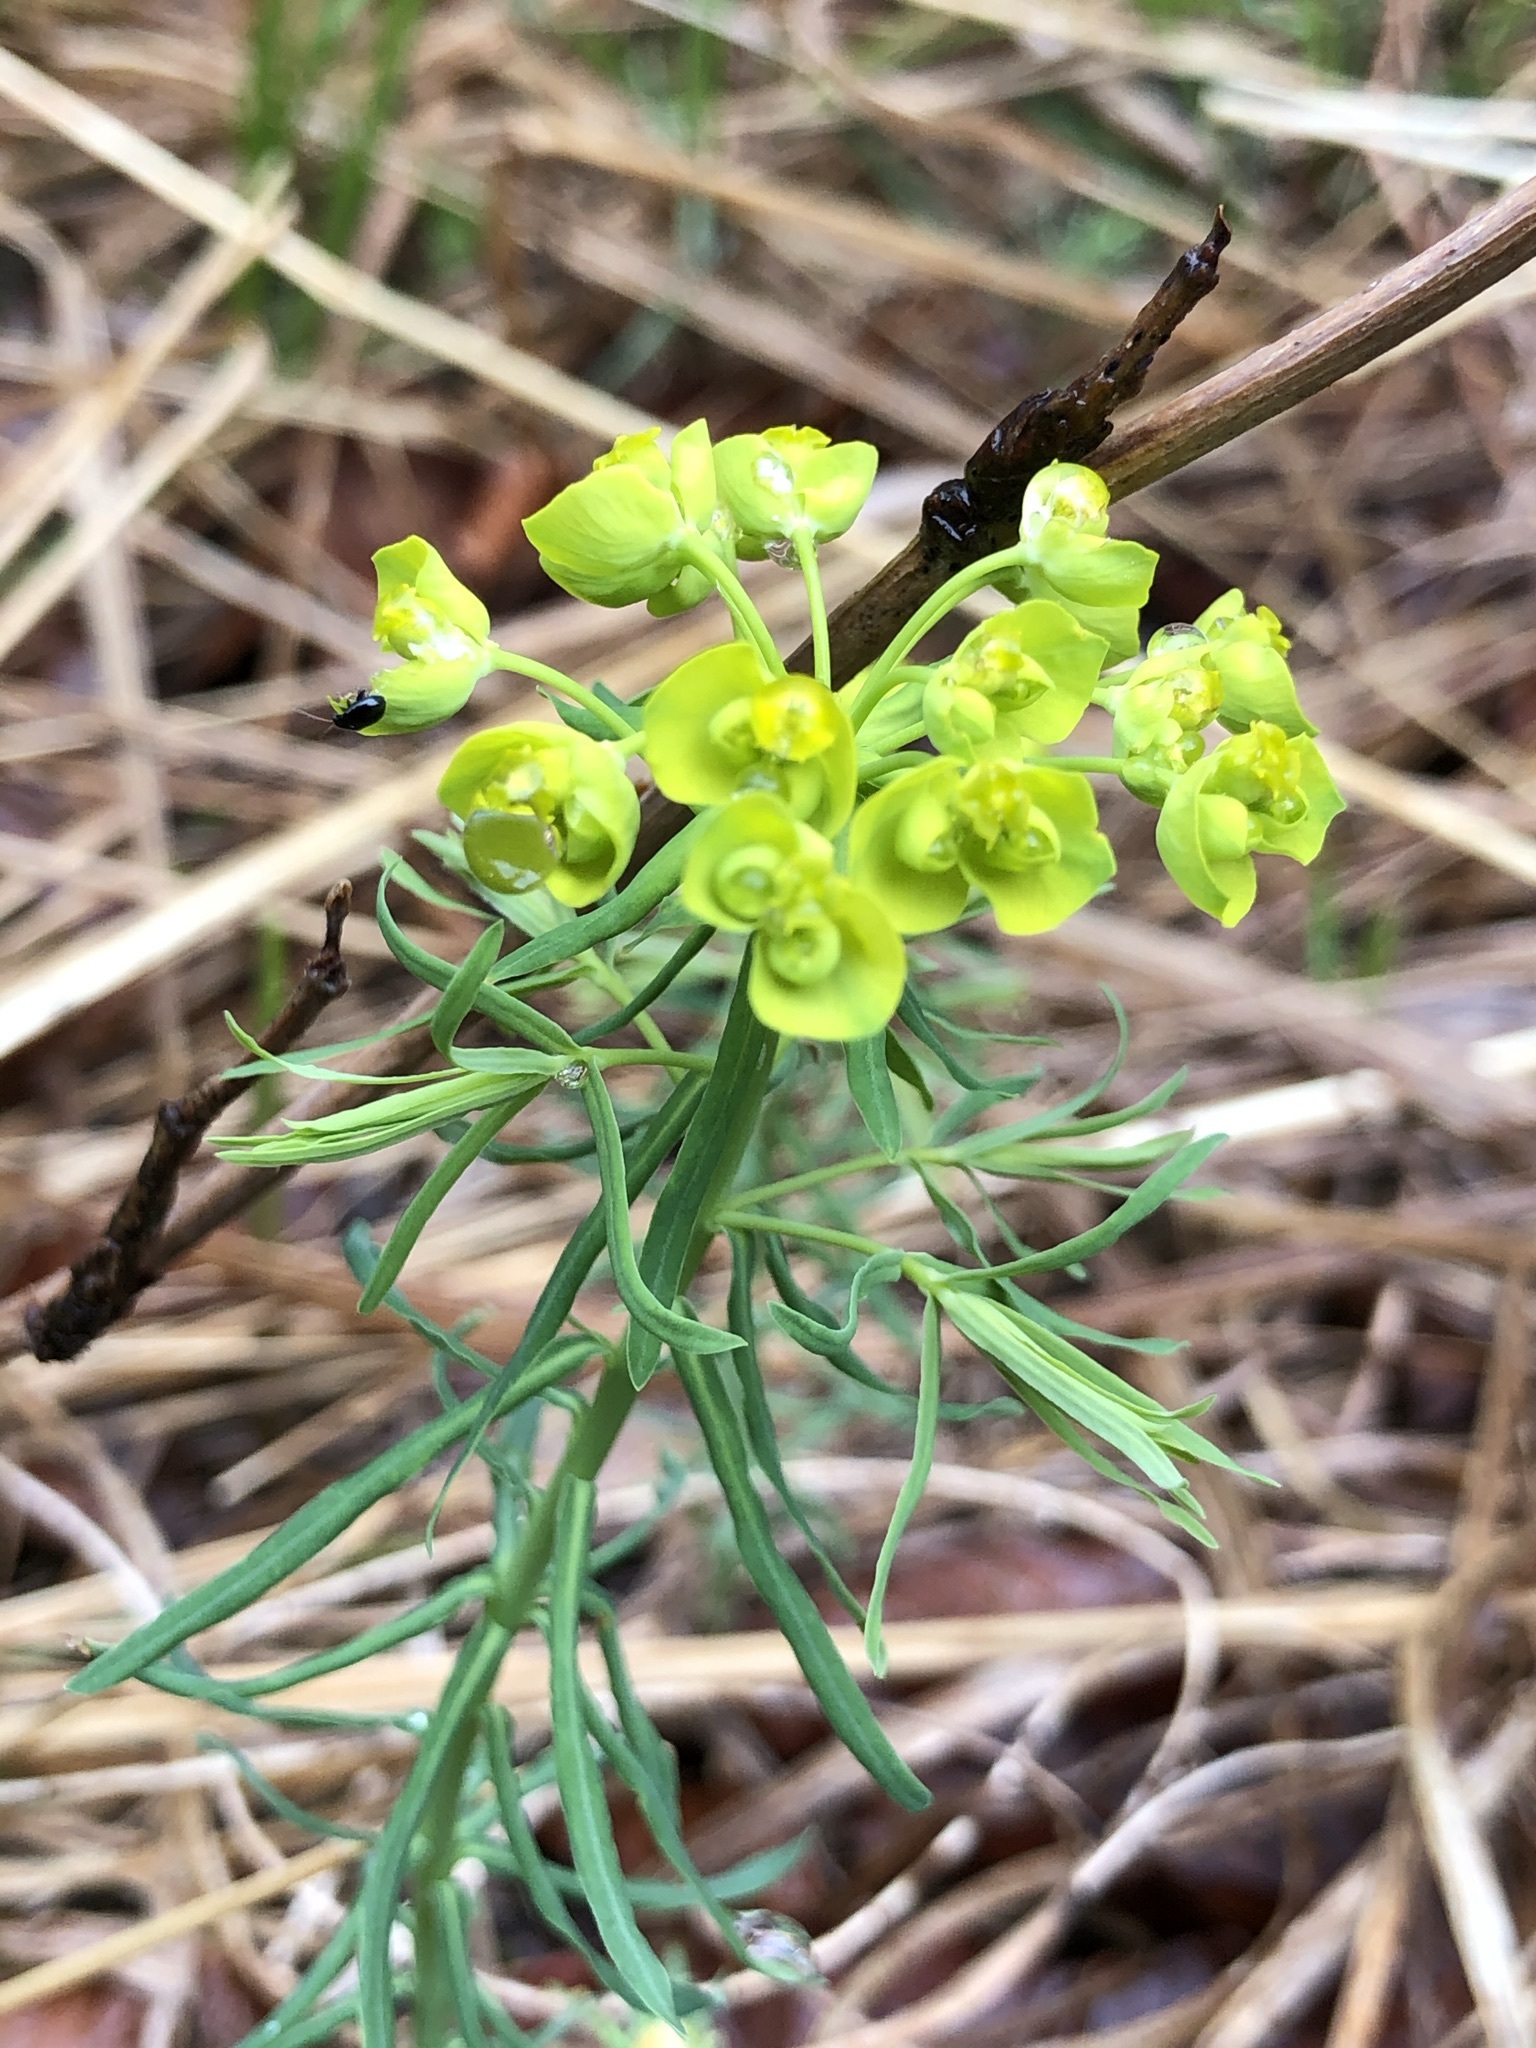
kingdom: Plantae
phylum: Tracheophyta
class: Magnoliopsida
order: Malpighiales
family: Euphorbiaceae
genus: Euphorbia
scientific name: Euphorbia cyparissias
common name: Cypress spurge
